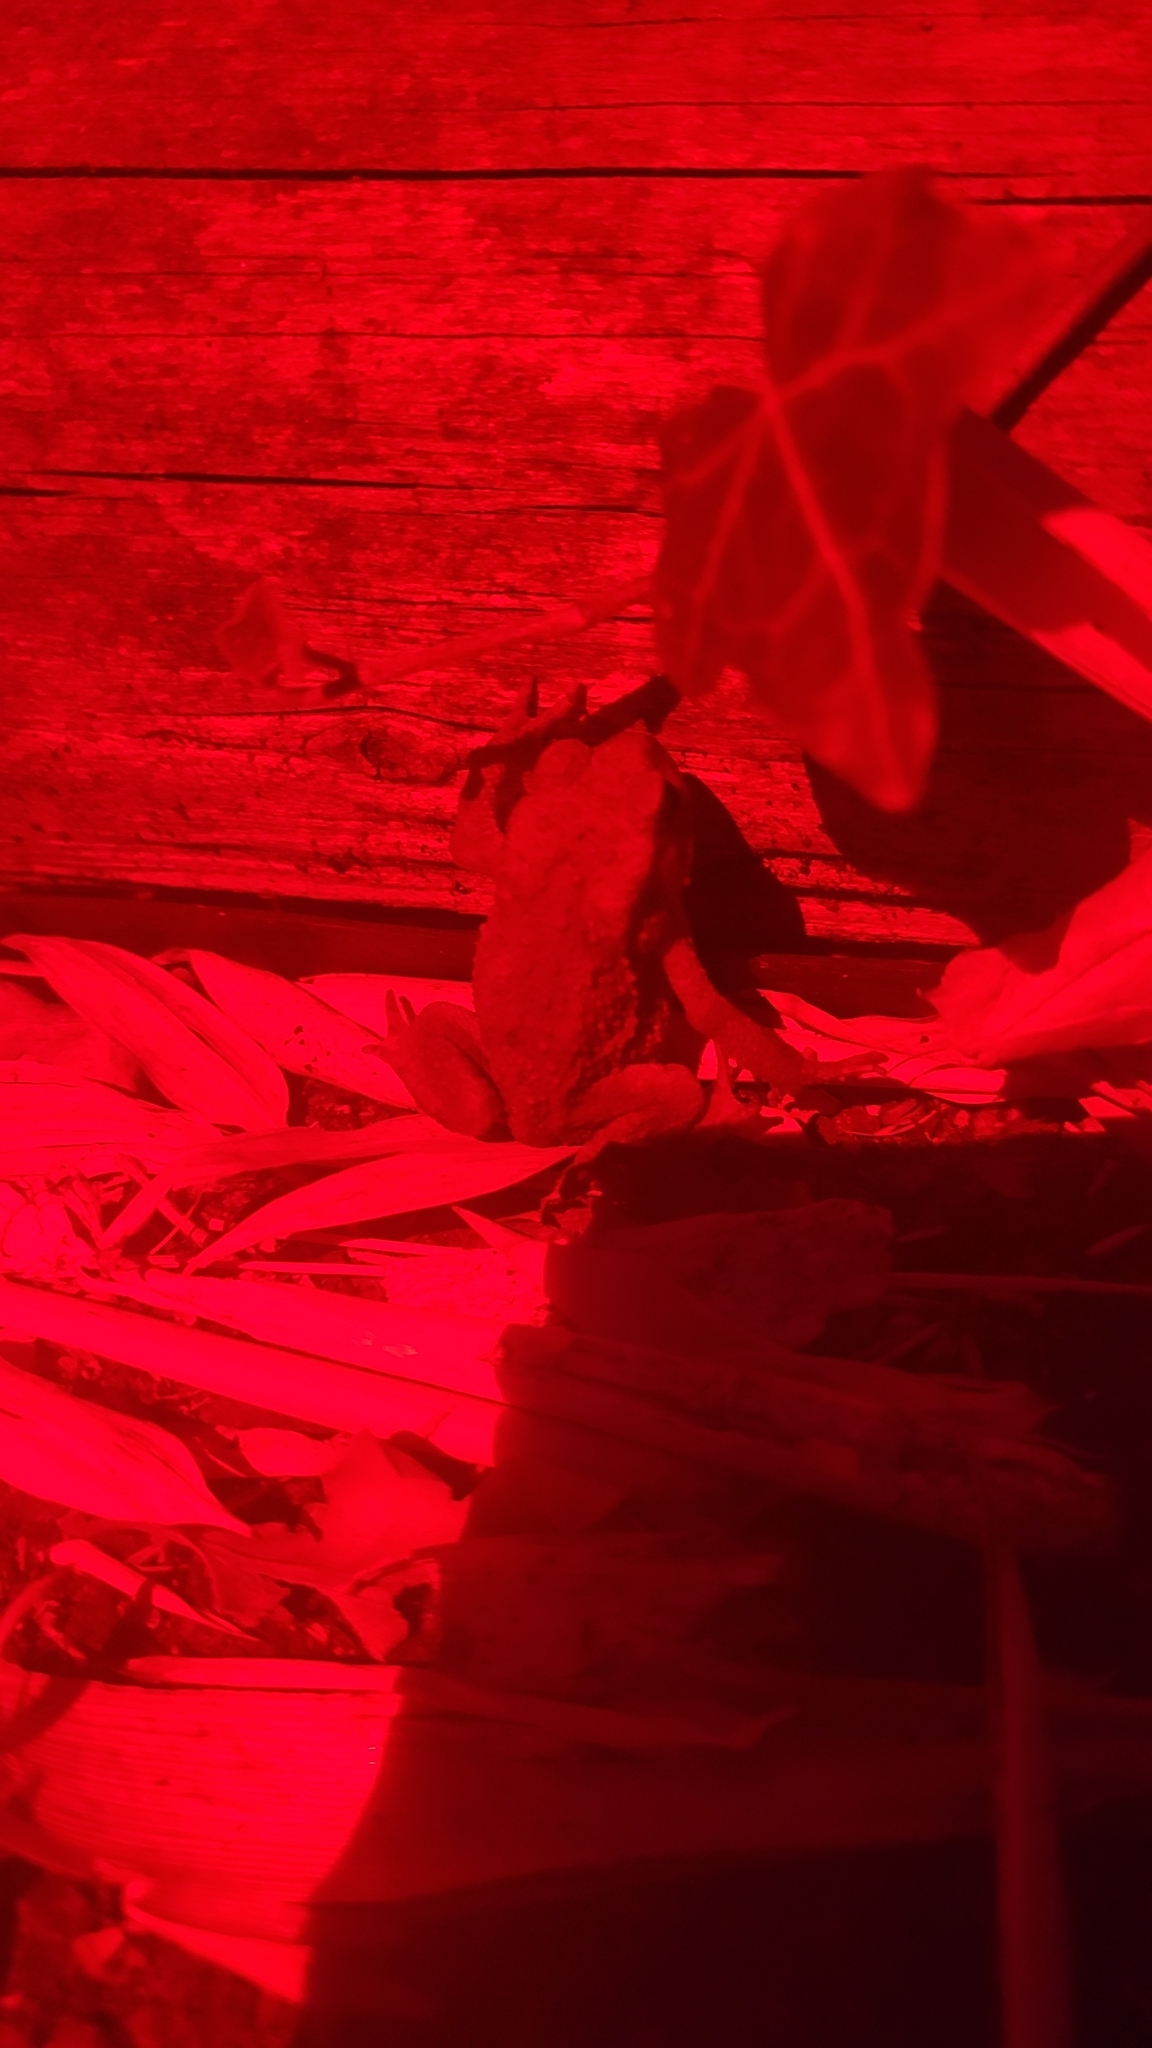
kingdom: Animalia
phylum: Chordata
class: Amphibia
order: Anura
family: Bufonidae
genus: Bufo
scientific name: Bufo bufo
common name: Common toad
